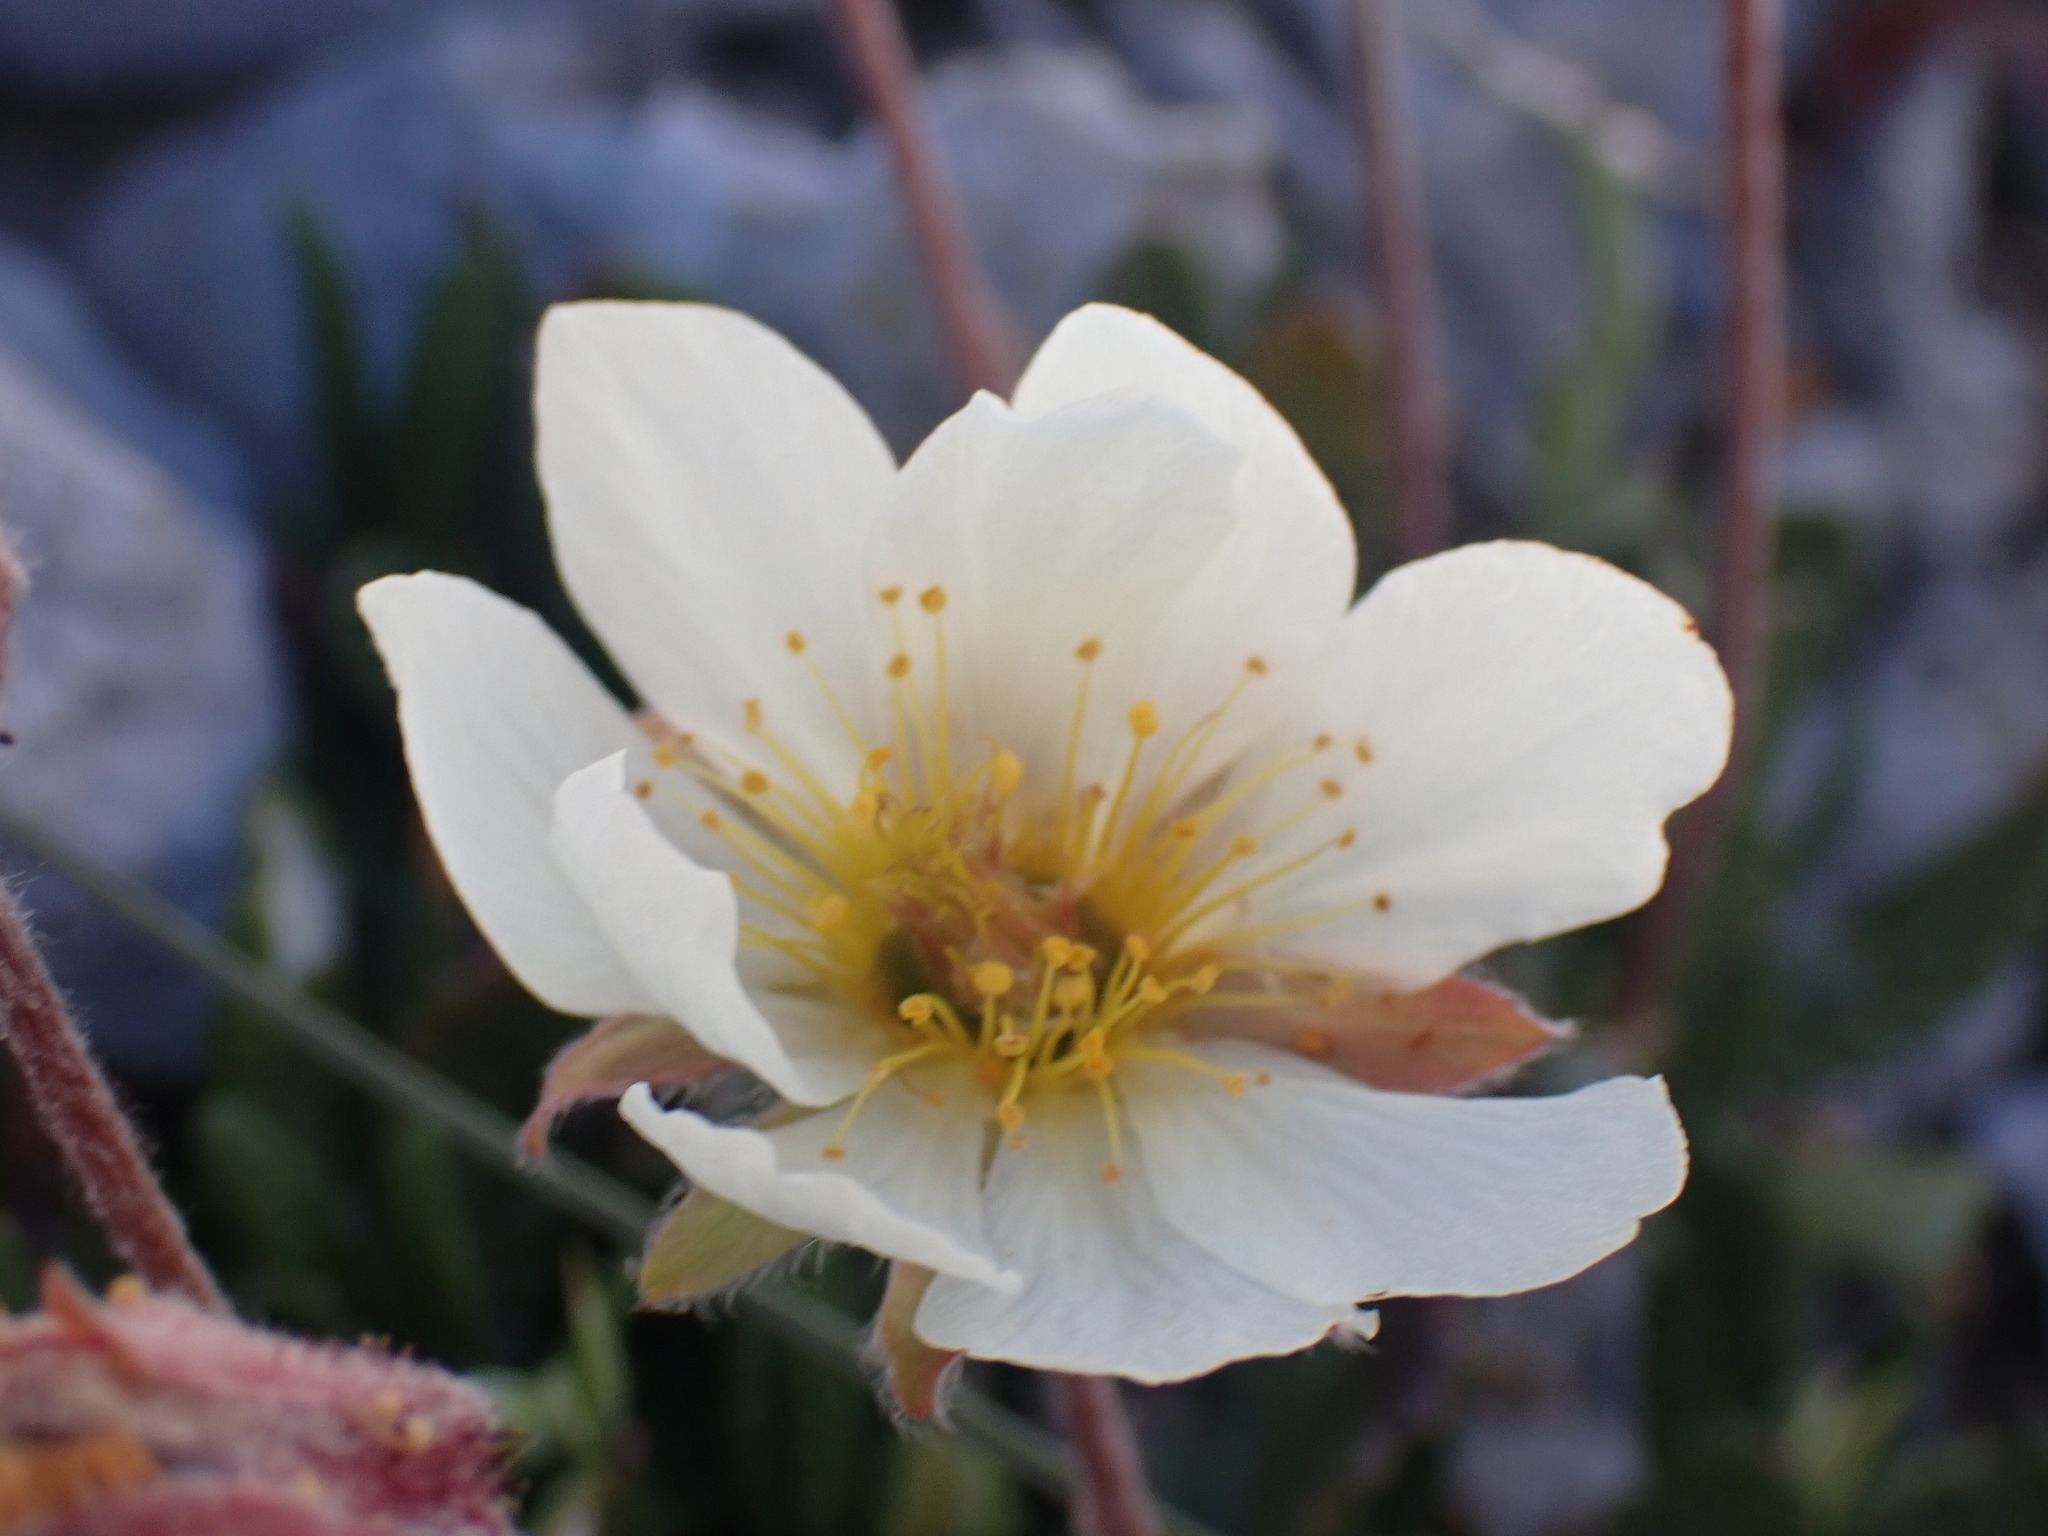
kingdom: Plantae
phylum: Tracheophyta
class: Magnoliopsida
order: Rosales
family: Rosaceae
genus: Dryas
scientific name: Dryas octopetala
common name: Eight-petal mountain-avens
